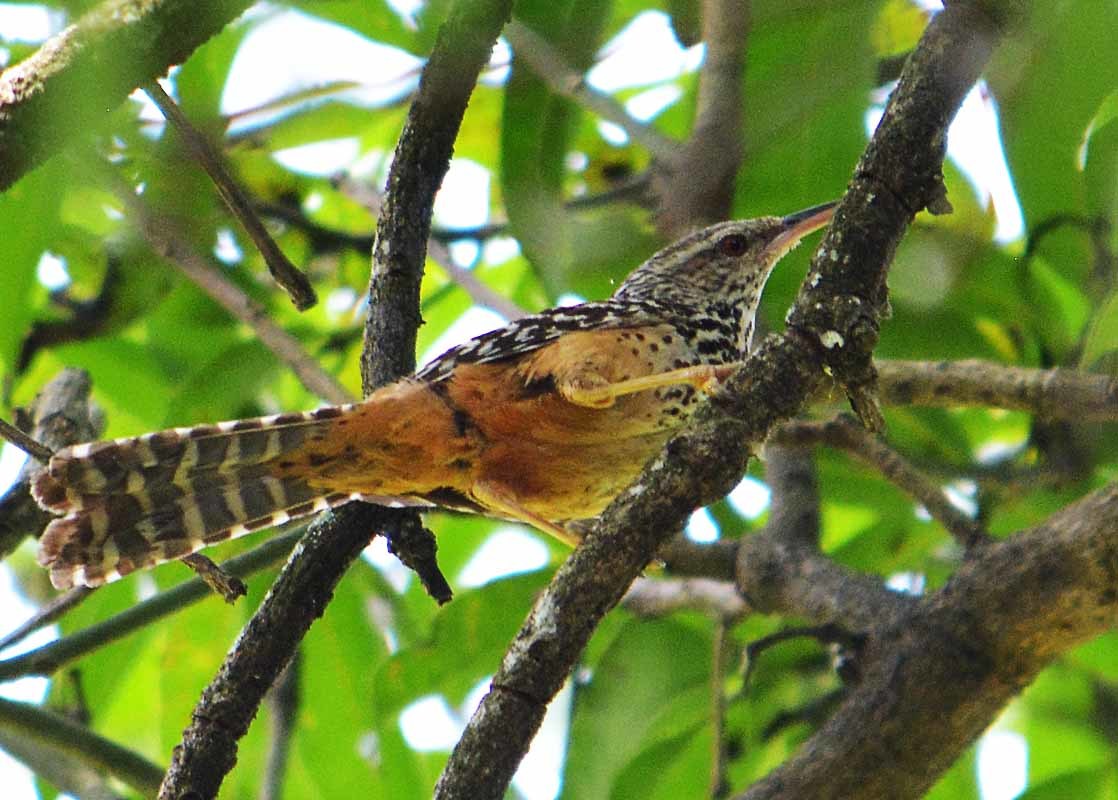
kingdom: Animalia
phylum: Chordata
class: Aves
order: Passeriformes
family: Troglodytidae
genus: Campylorhynchus
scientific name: Campylorhynchus zonatus
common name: Band-backed wren
